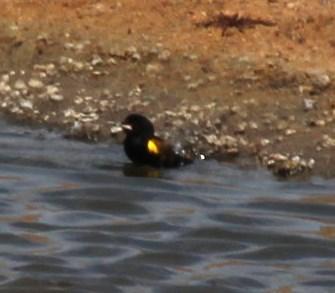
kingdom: Animalia
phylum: Chordata
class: Aves
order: Passeriformes
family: Ploceidae
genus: Euplectes
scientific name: Euplectes capensis
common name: Yellow bishop
